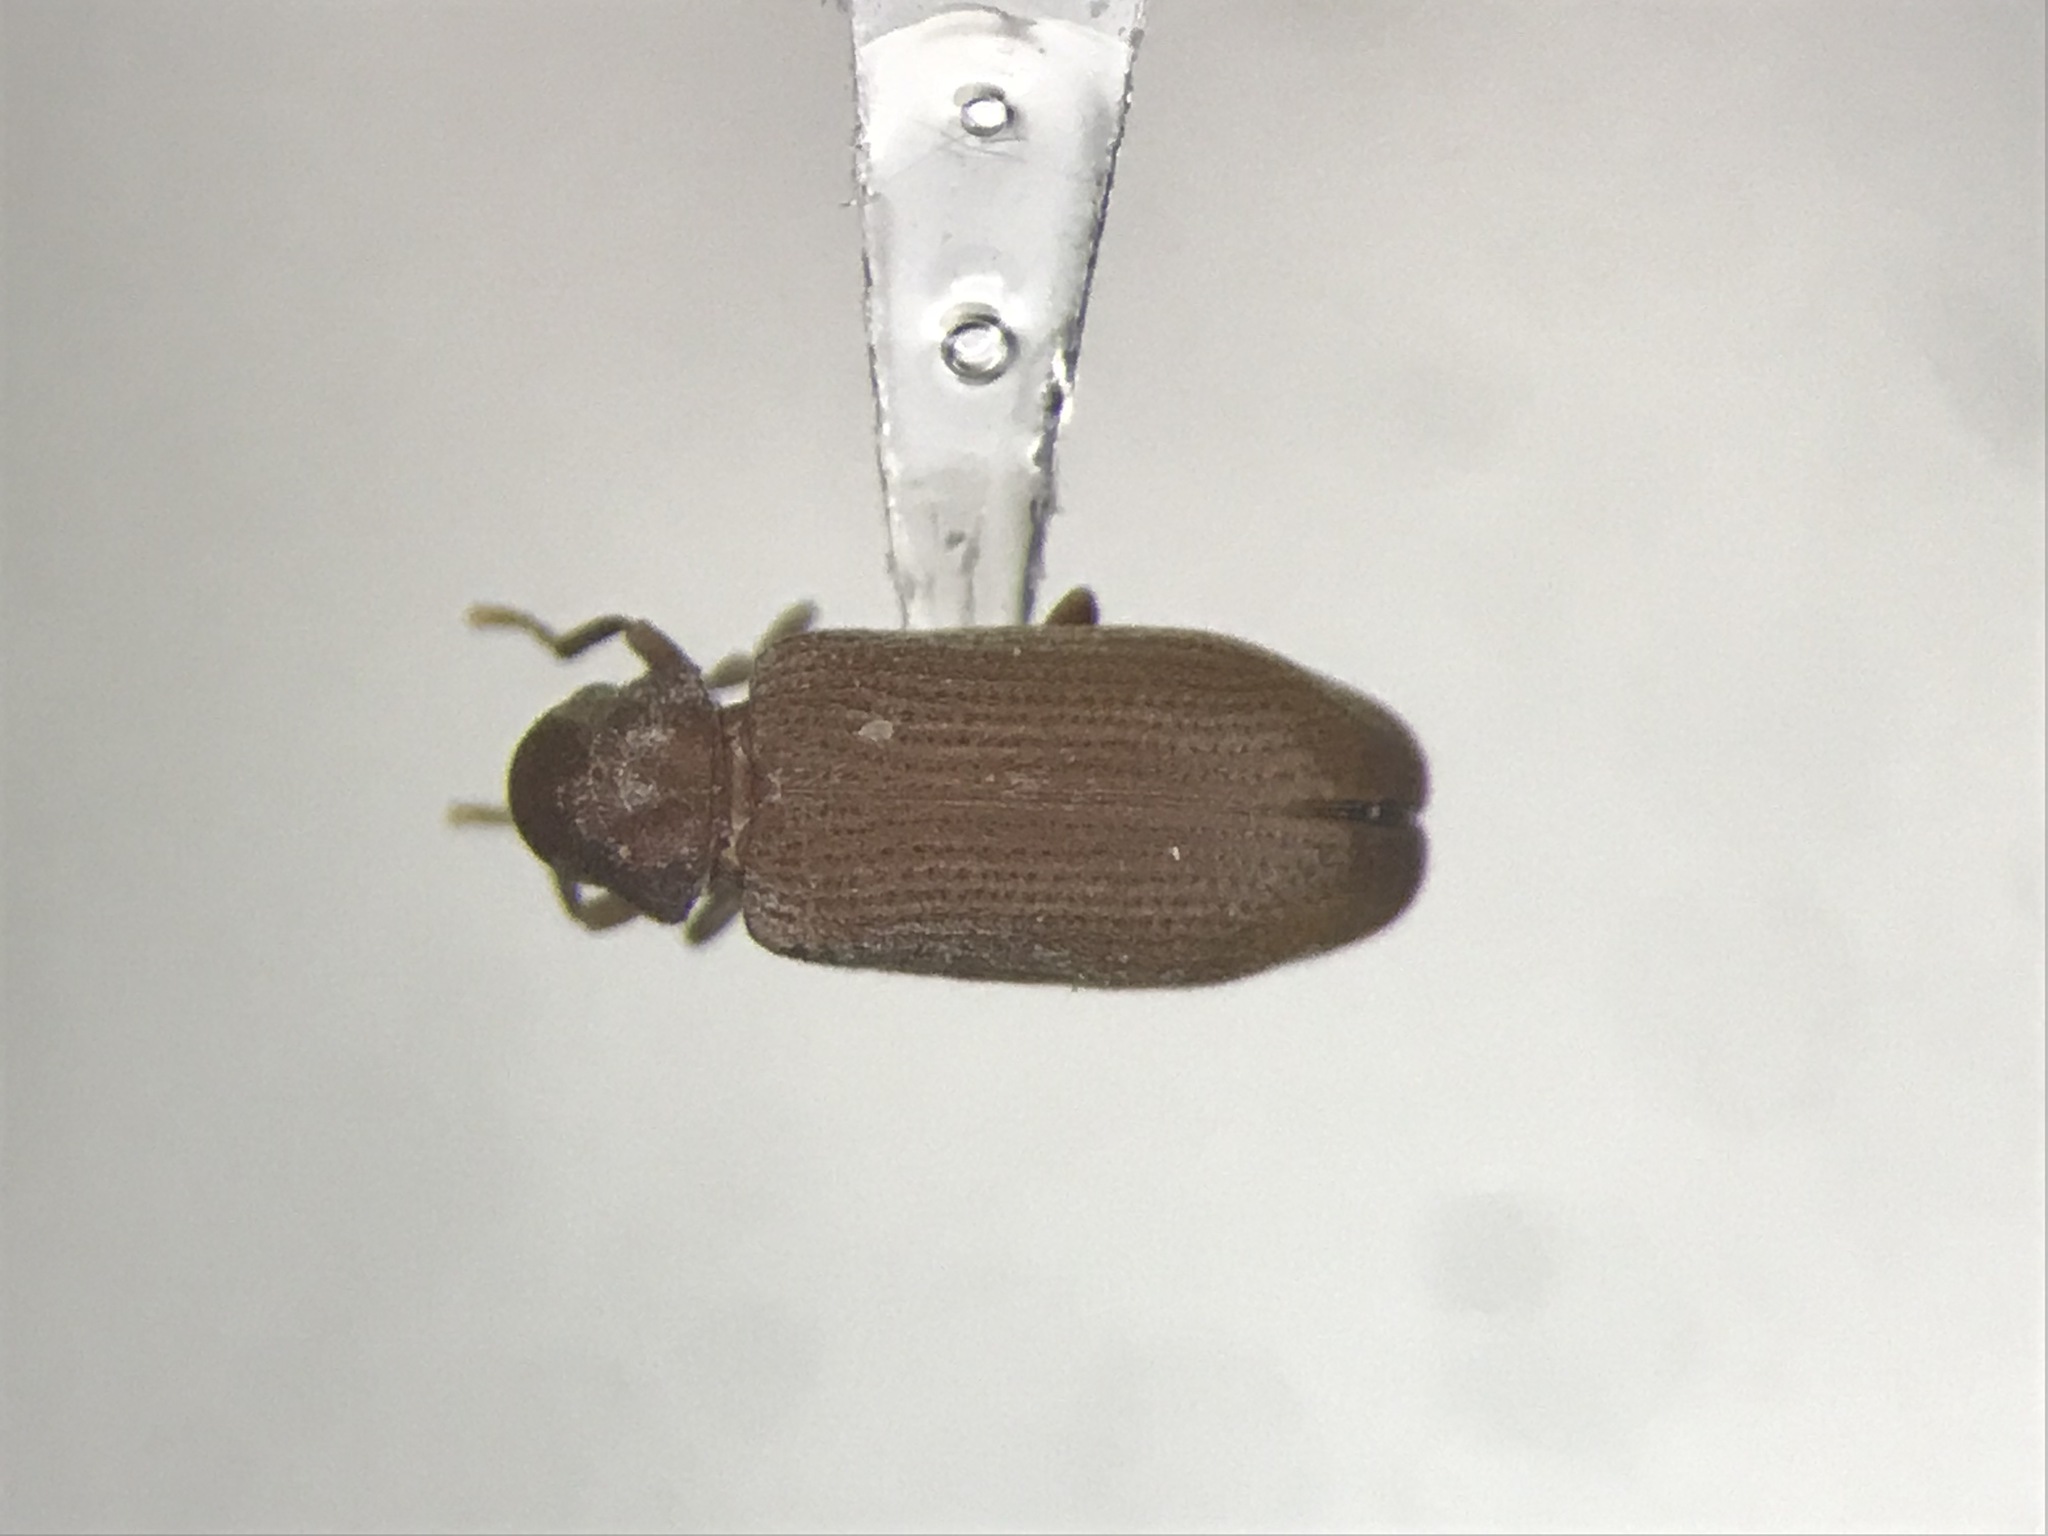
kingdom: Animalia
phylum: Arthropoda
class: Insecta
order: Coleoptera
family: Anobiidae
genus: Hemicoelus
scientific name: Hemicoelus pusillus
